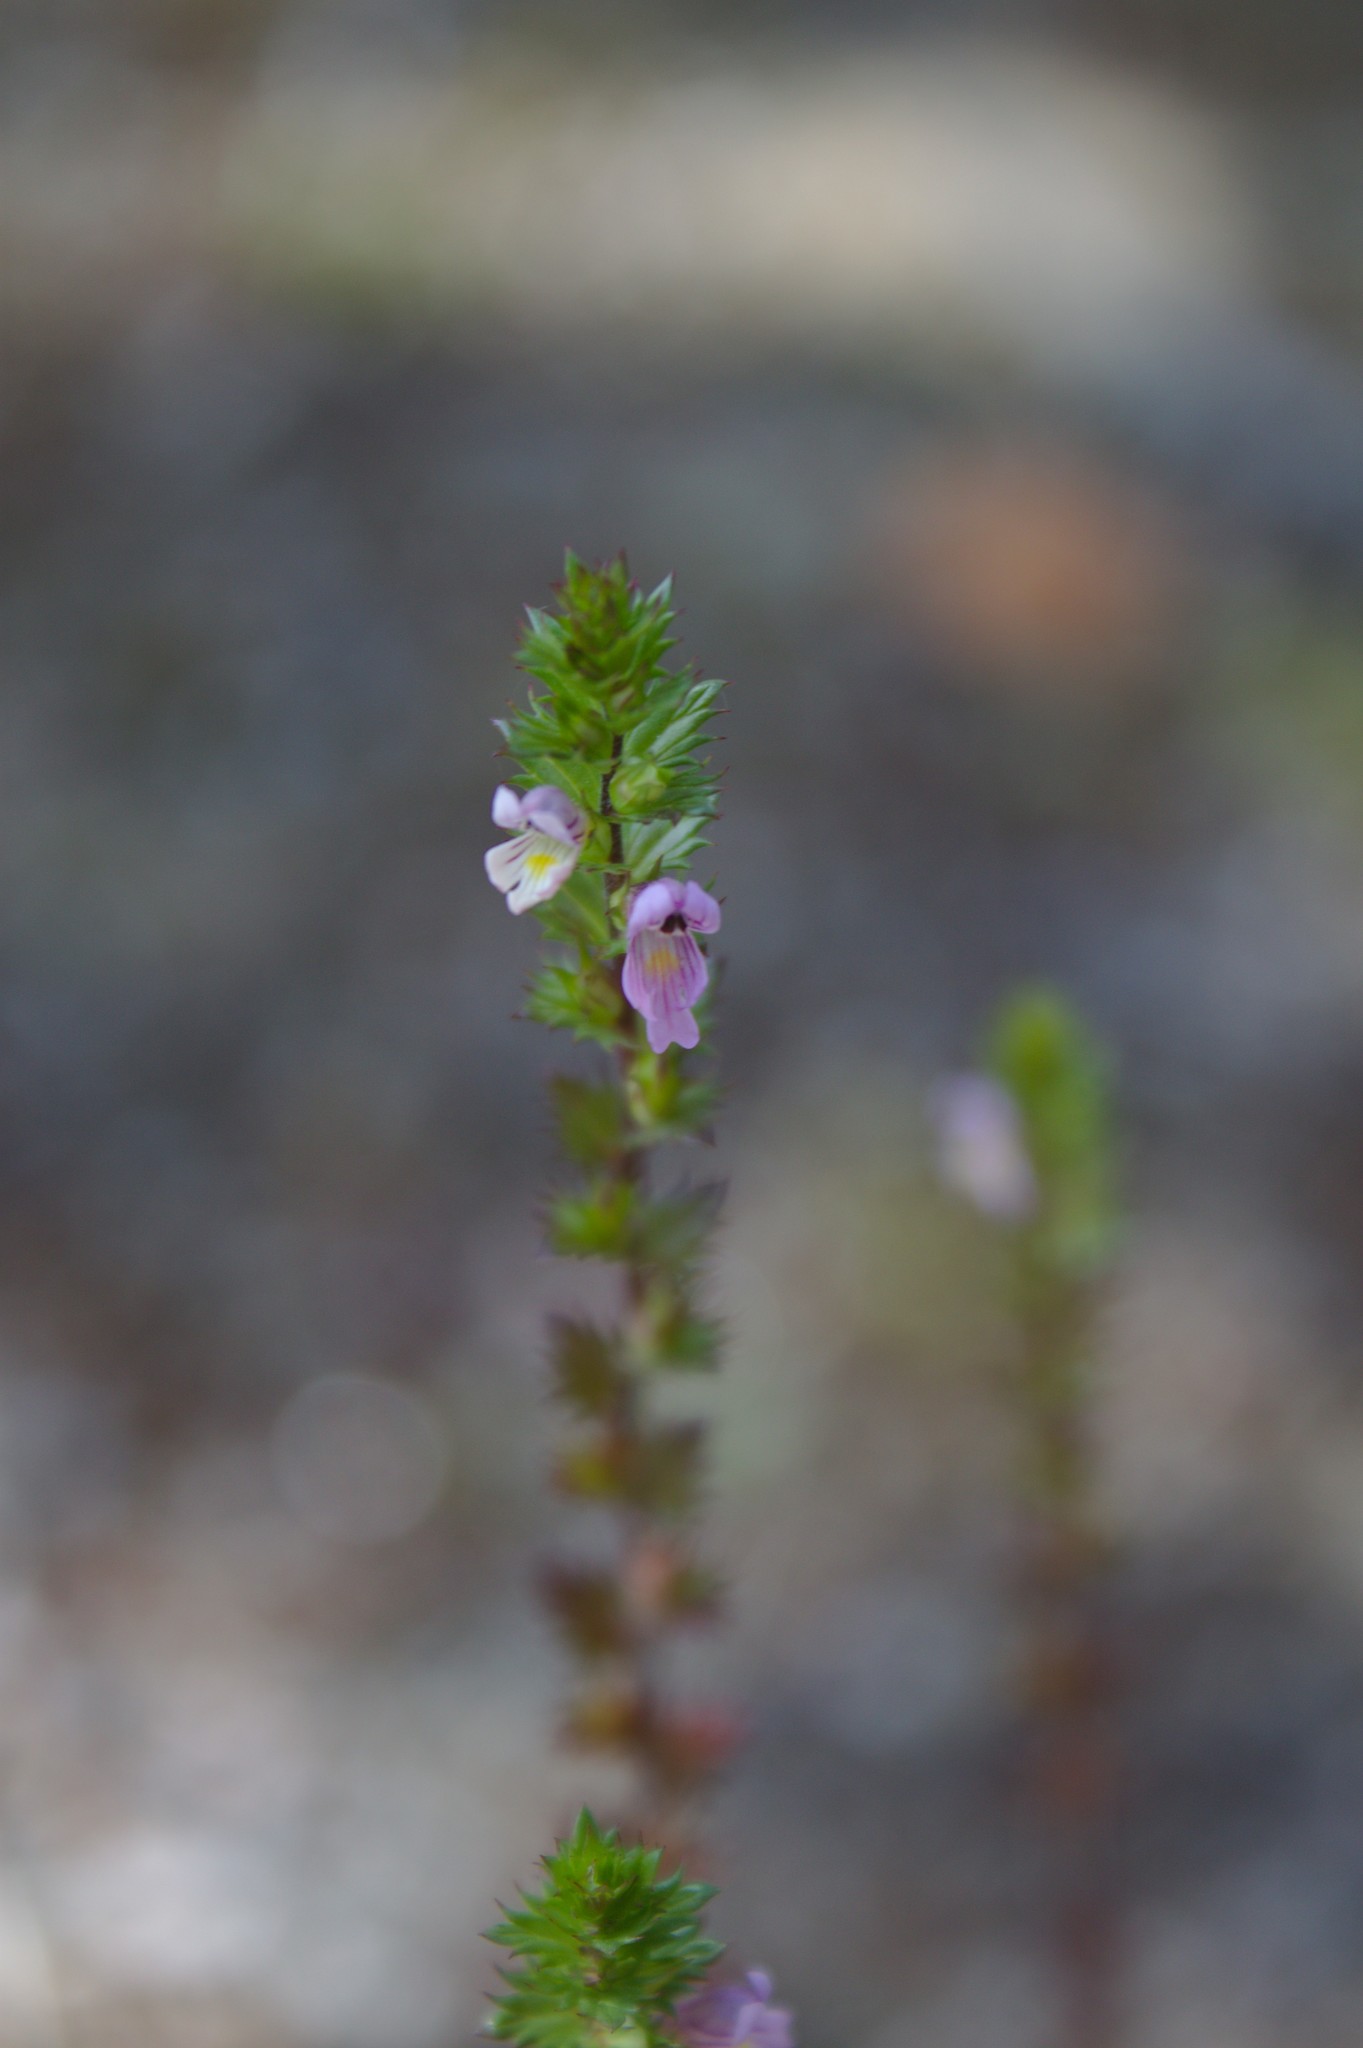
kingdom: Plantae
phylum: Tracheophyta
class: Magnoliopsida
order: Lamiales
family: Orobanchaceae
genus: Euphrasia
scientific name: Euphrasia nemorosa
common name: Common eyebright
